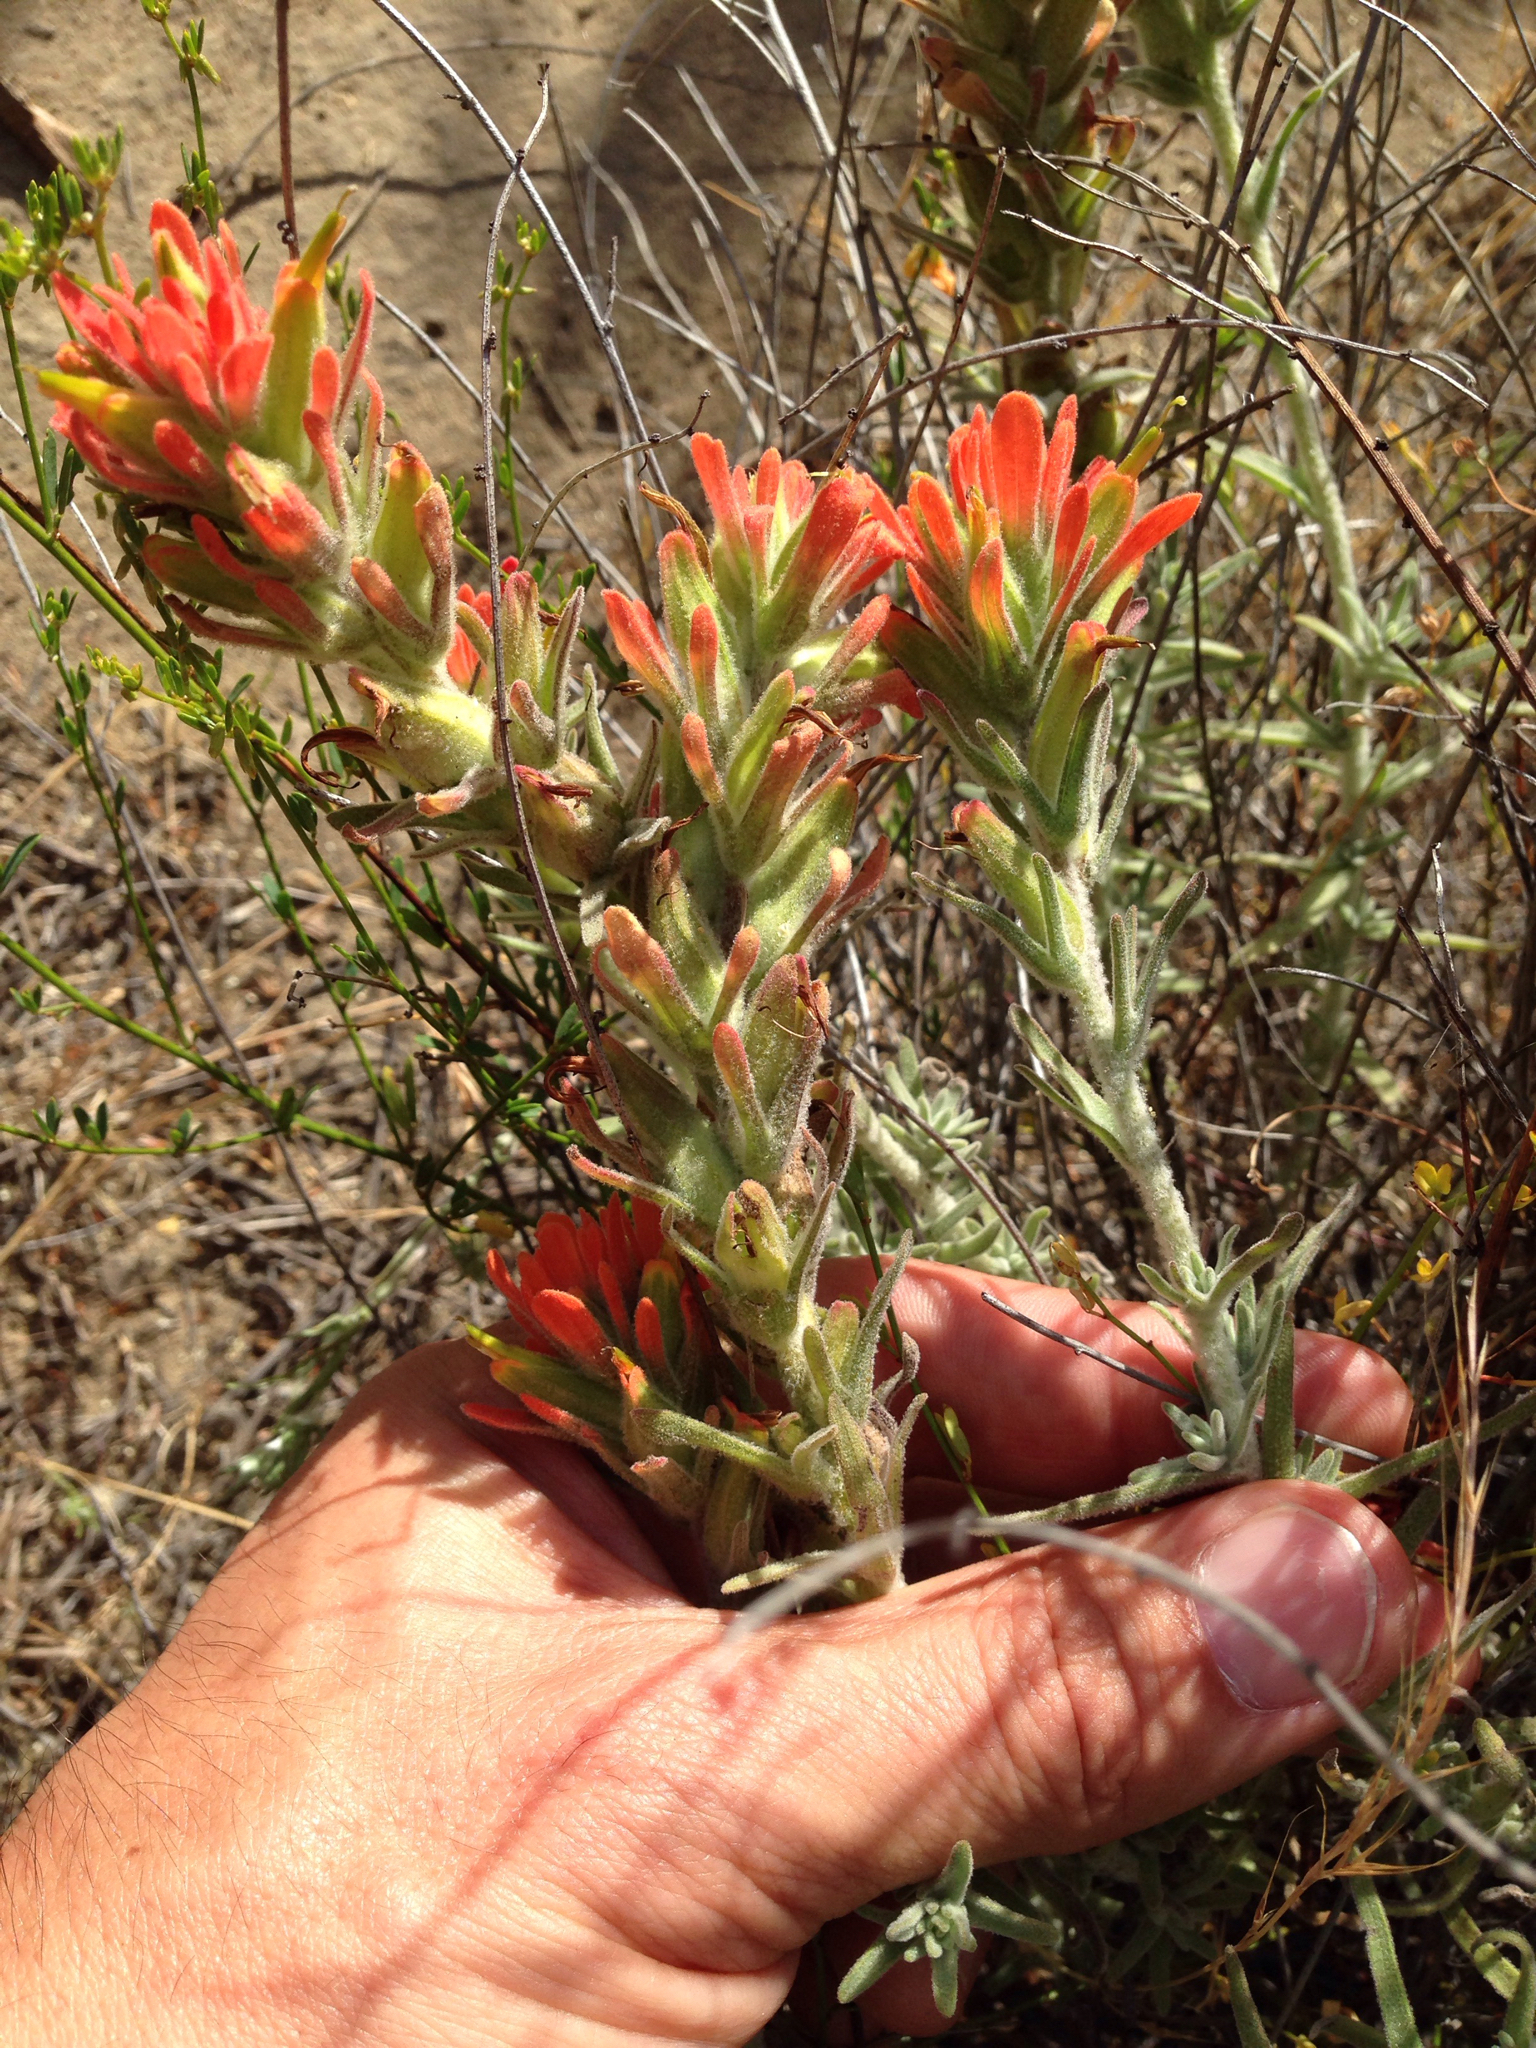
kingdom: Plantae
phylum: Tracheophyta
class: Magnoliopsida
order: Lamiales
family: Orobanchaceae
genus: Castilleja
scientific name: Castilleja foliolosa
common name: Woolly indian paintbrush
